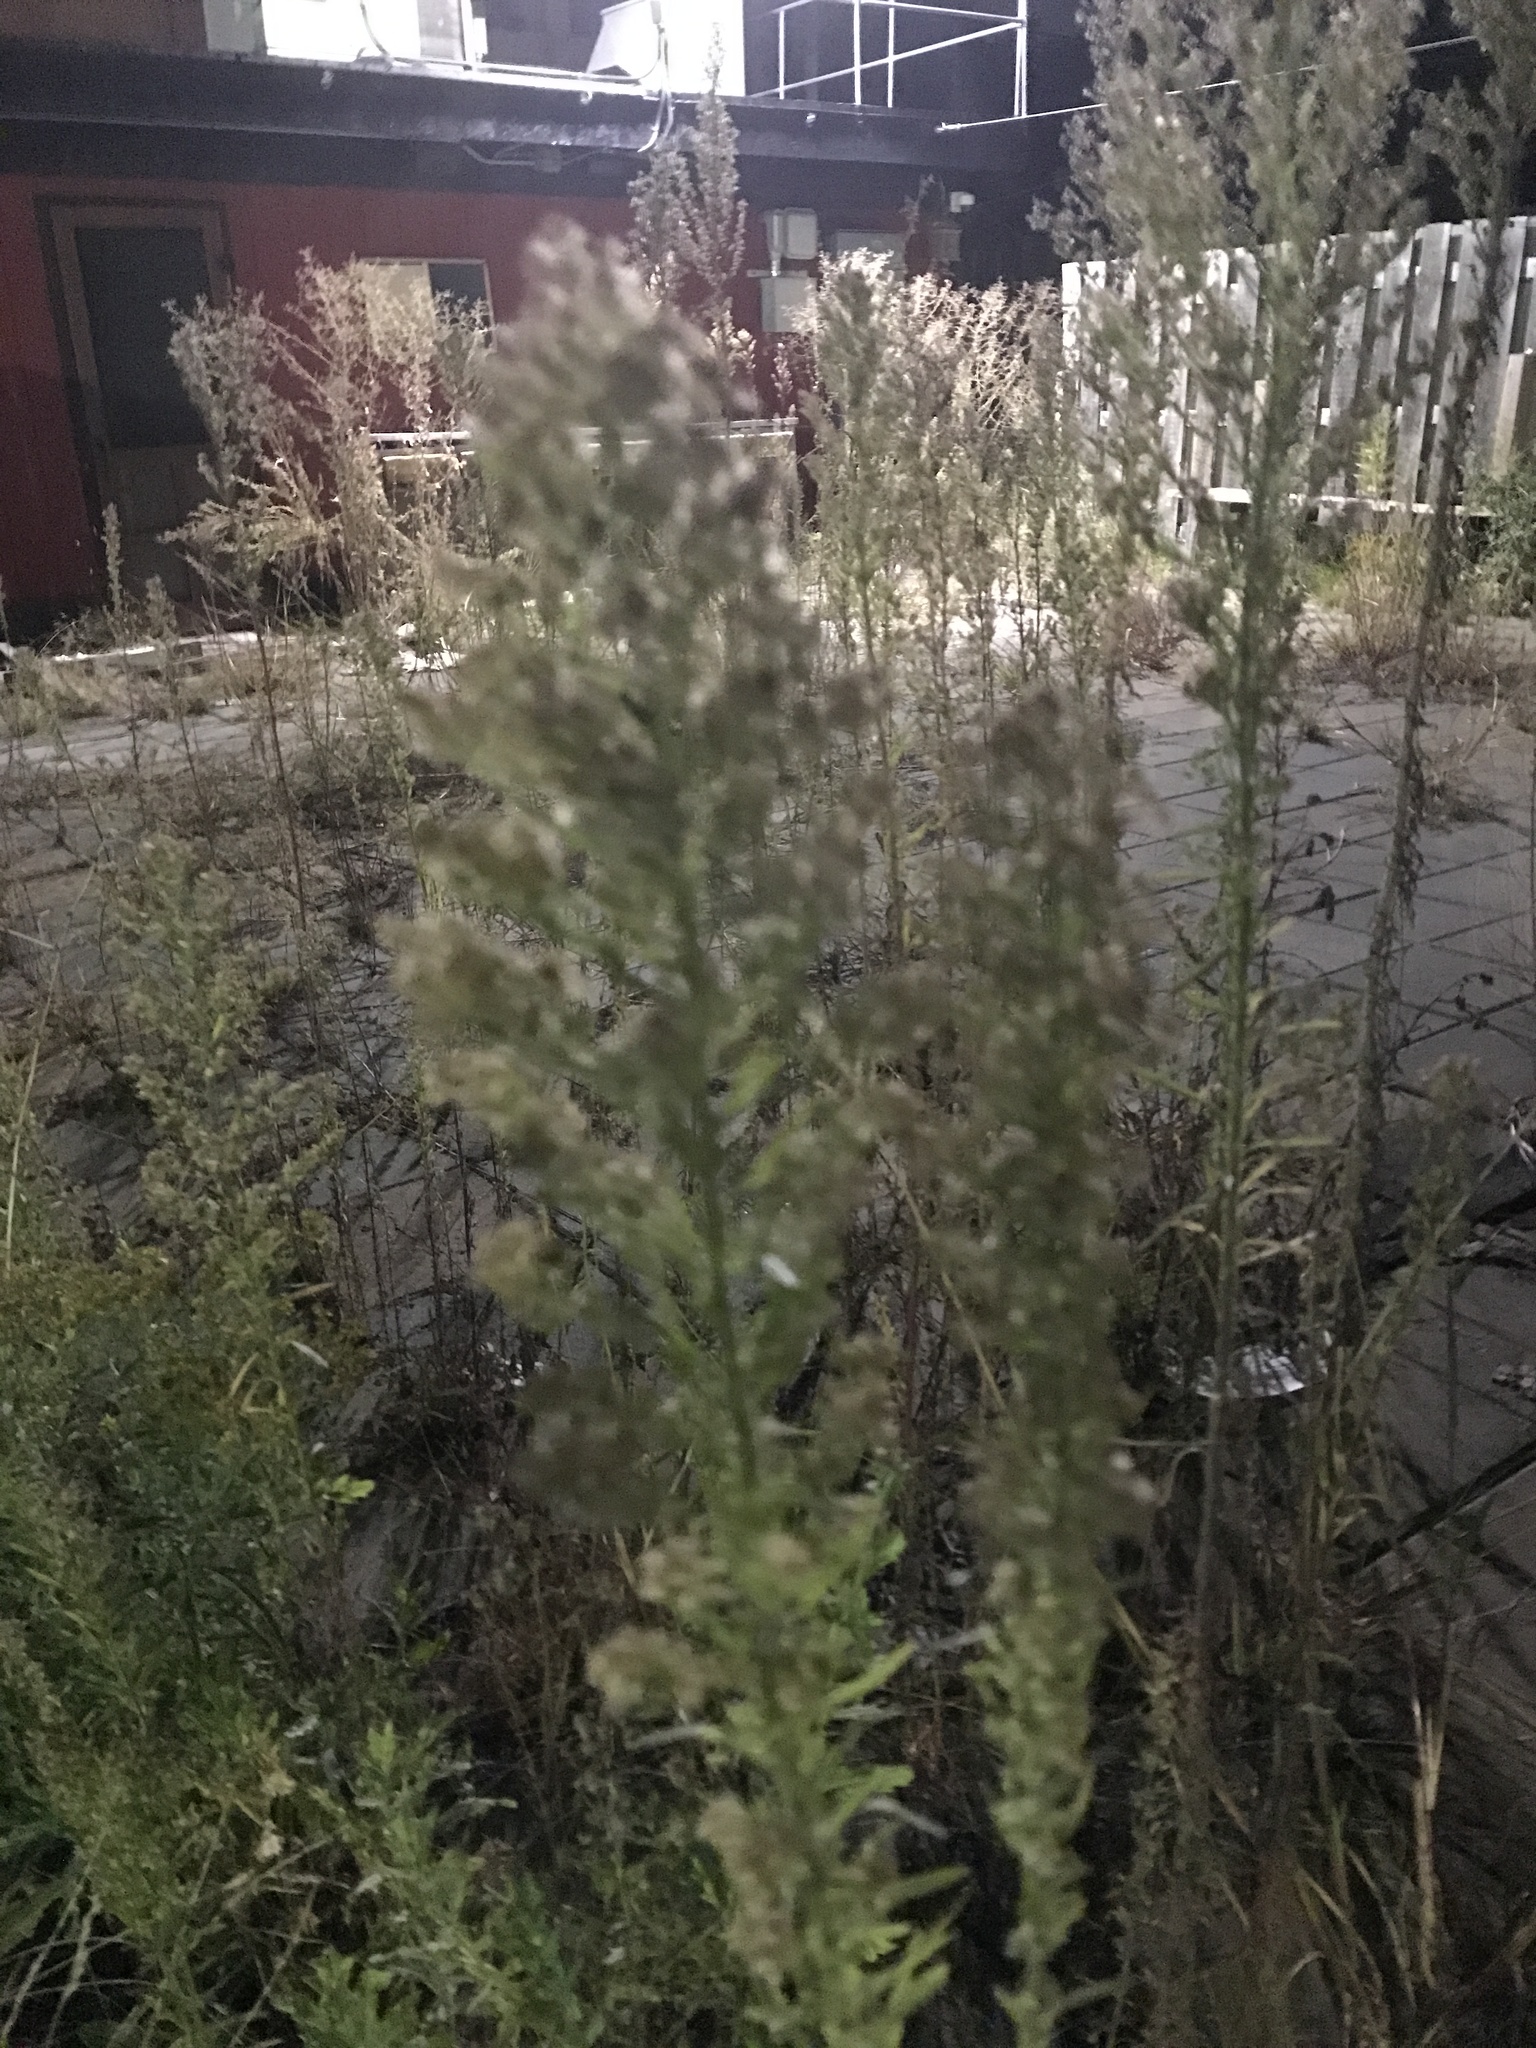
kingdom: Plantae
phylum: Tracheophyta
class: Magnoliopsida
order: Asterales
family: Asteraceae
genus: Erigeron
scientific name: Erigeron canadensis
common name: Canadian fleabane
